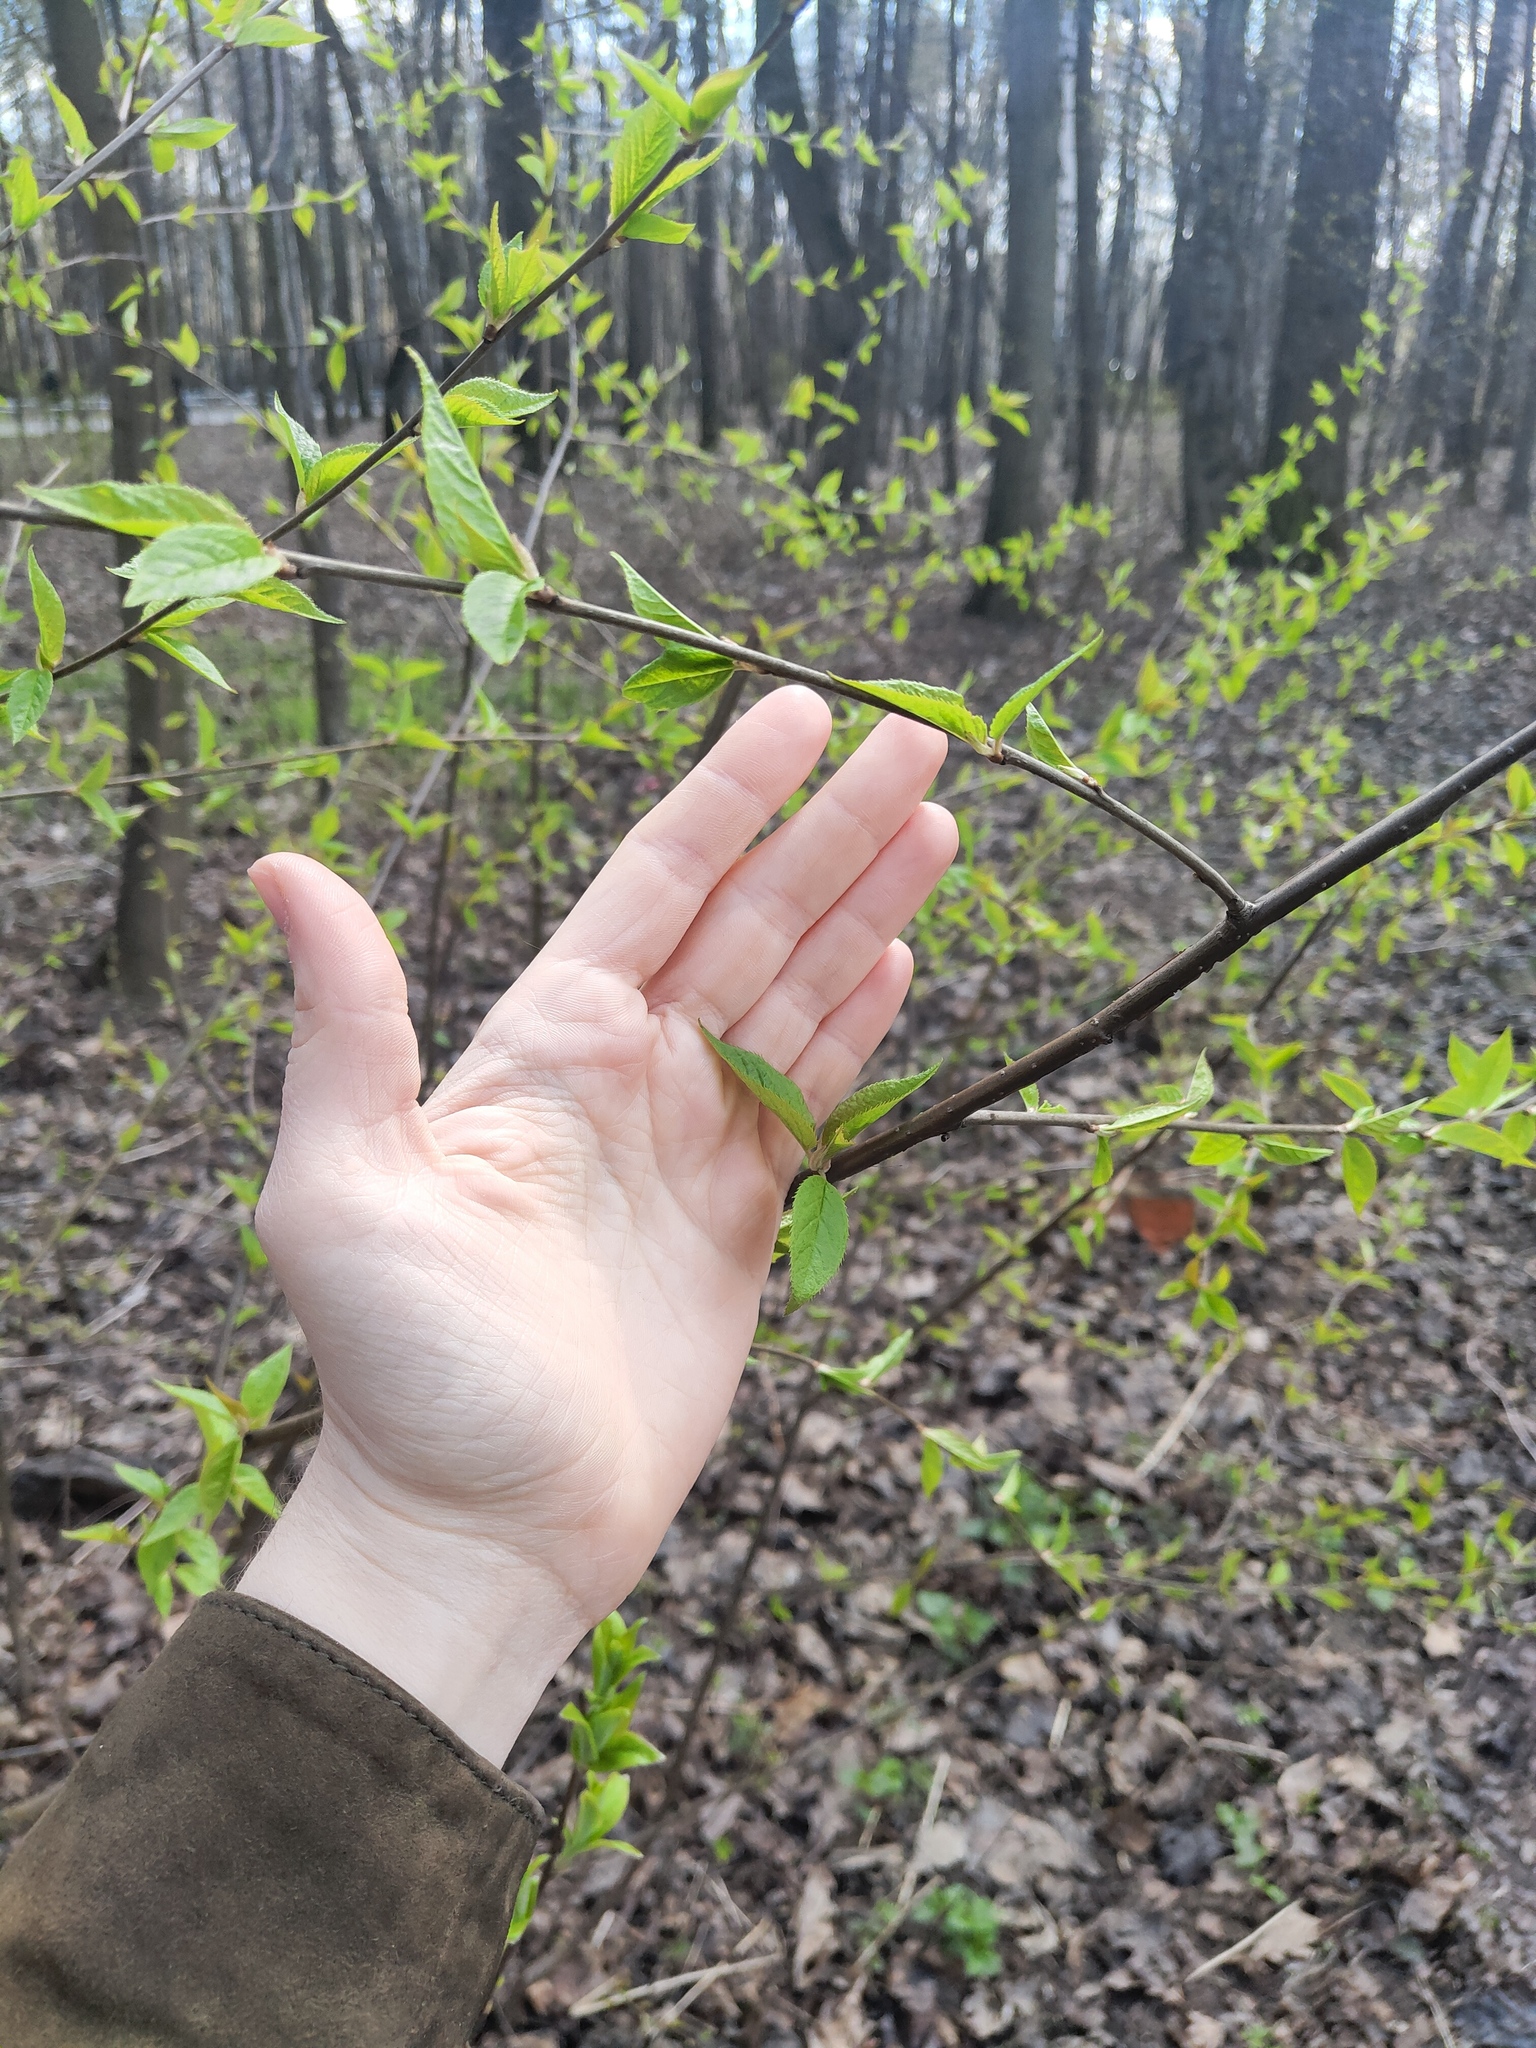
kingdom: Plantae
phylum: Tracheophyta
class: Magnoliopsida
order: Rosales
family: Rosaceae
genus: Prunus
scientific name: Prunus padus
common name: Bird cherry
